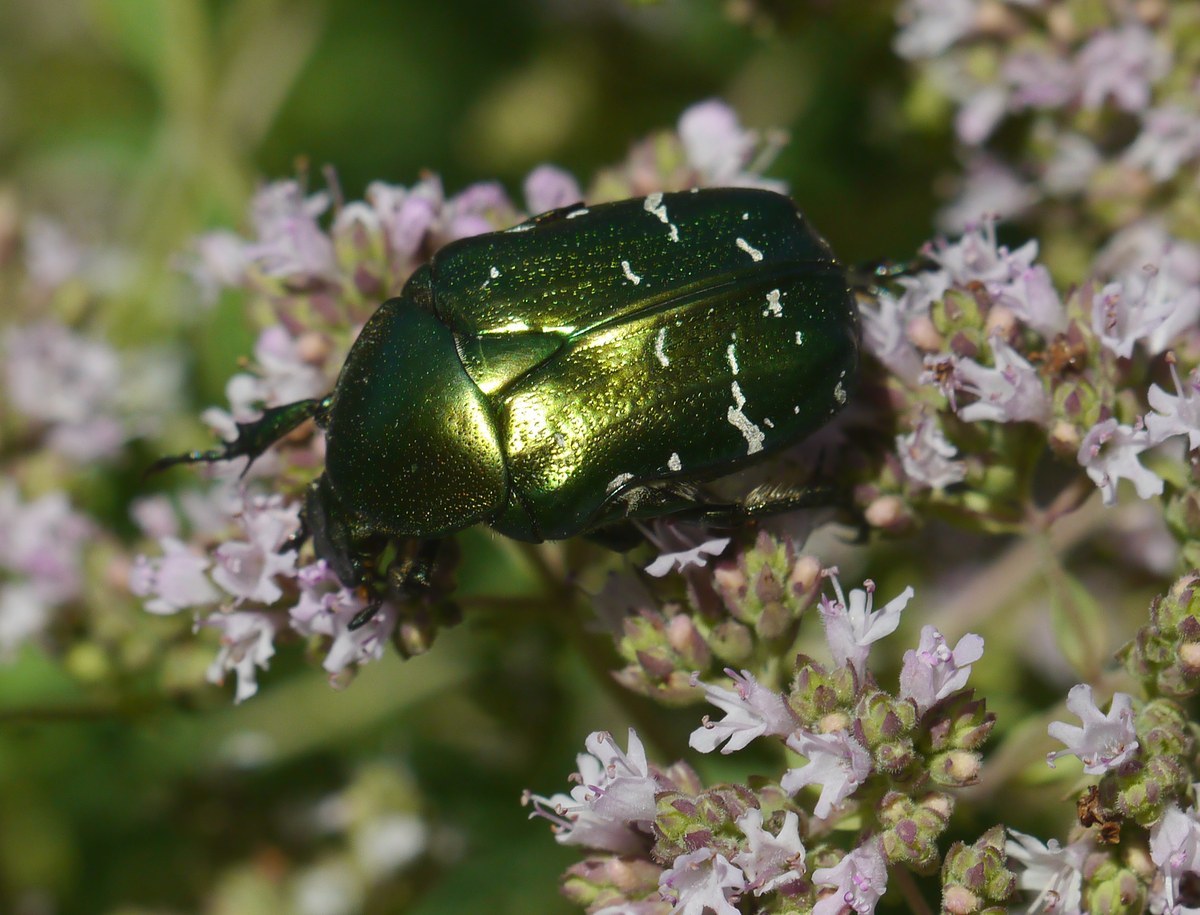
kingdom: Animalia
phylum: Arthropoda
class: Insecta
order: Coleoptera
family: Scarabaeidae
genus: Cetonia
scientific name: Cetonia aurata
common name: Rose chafer
